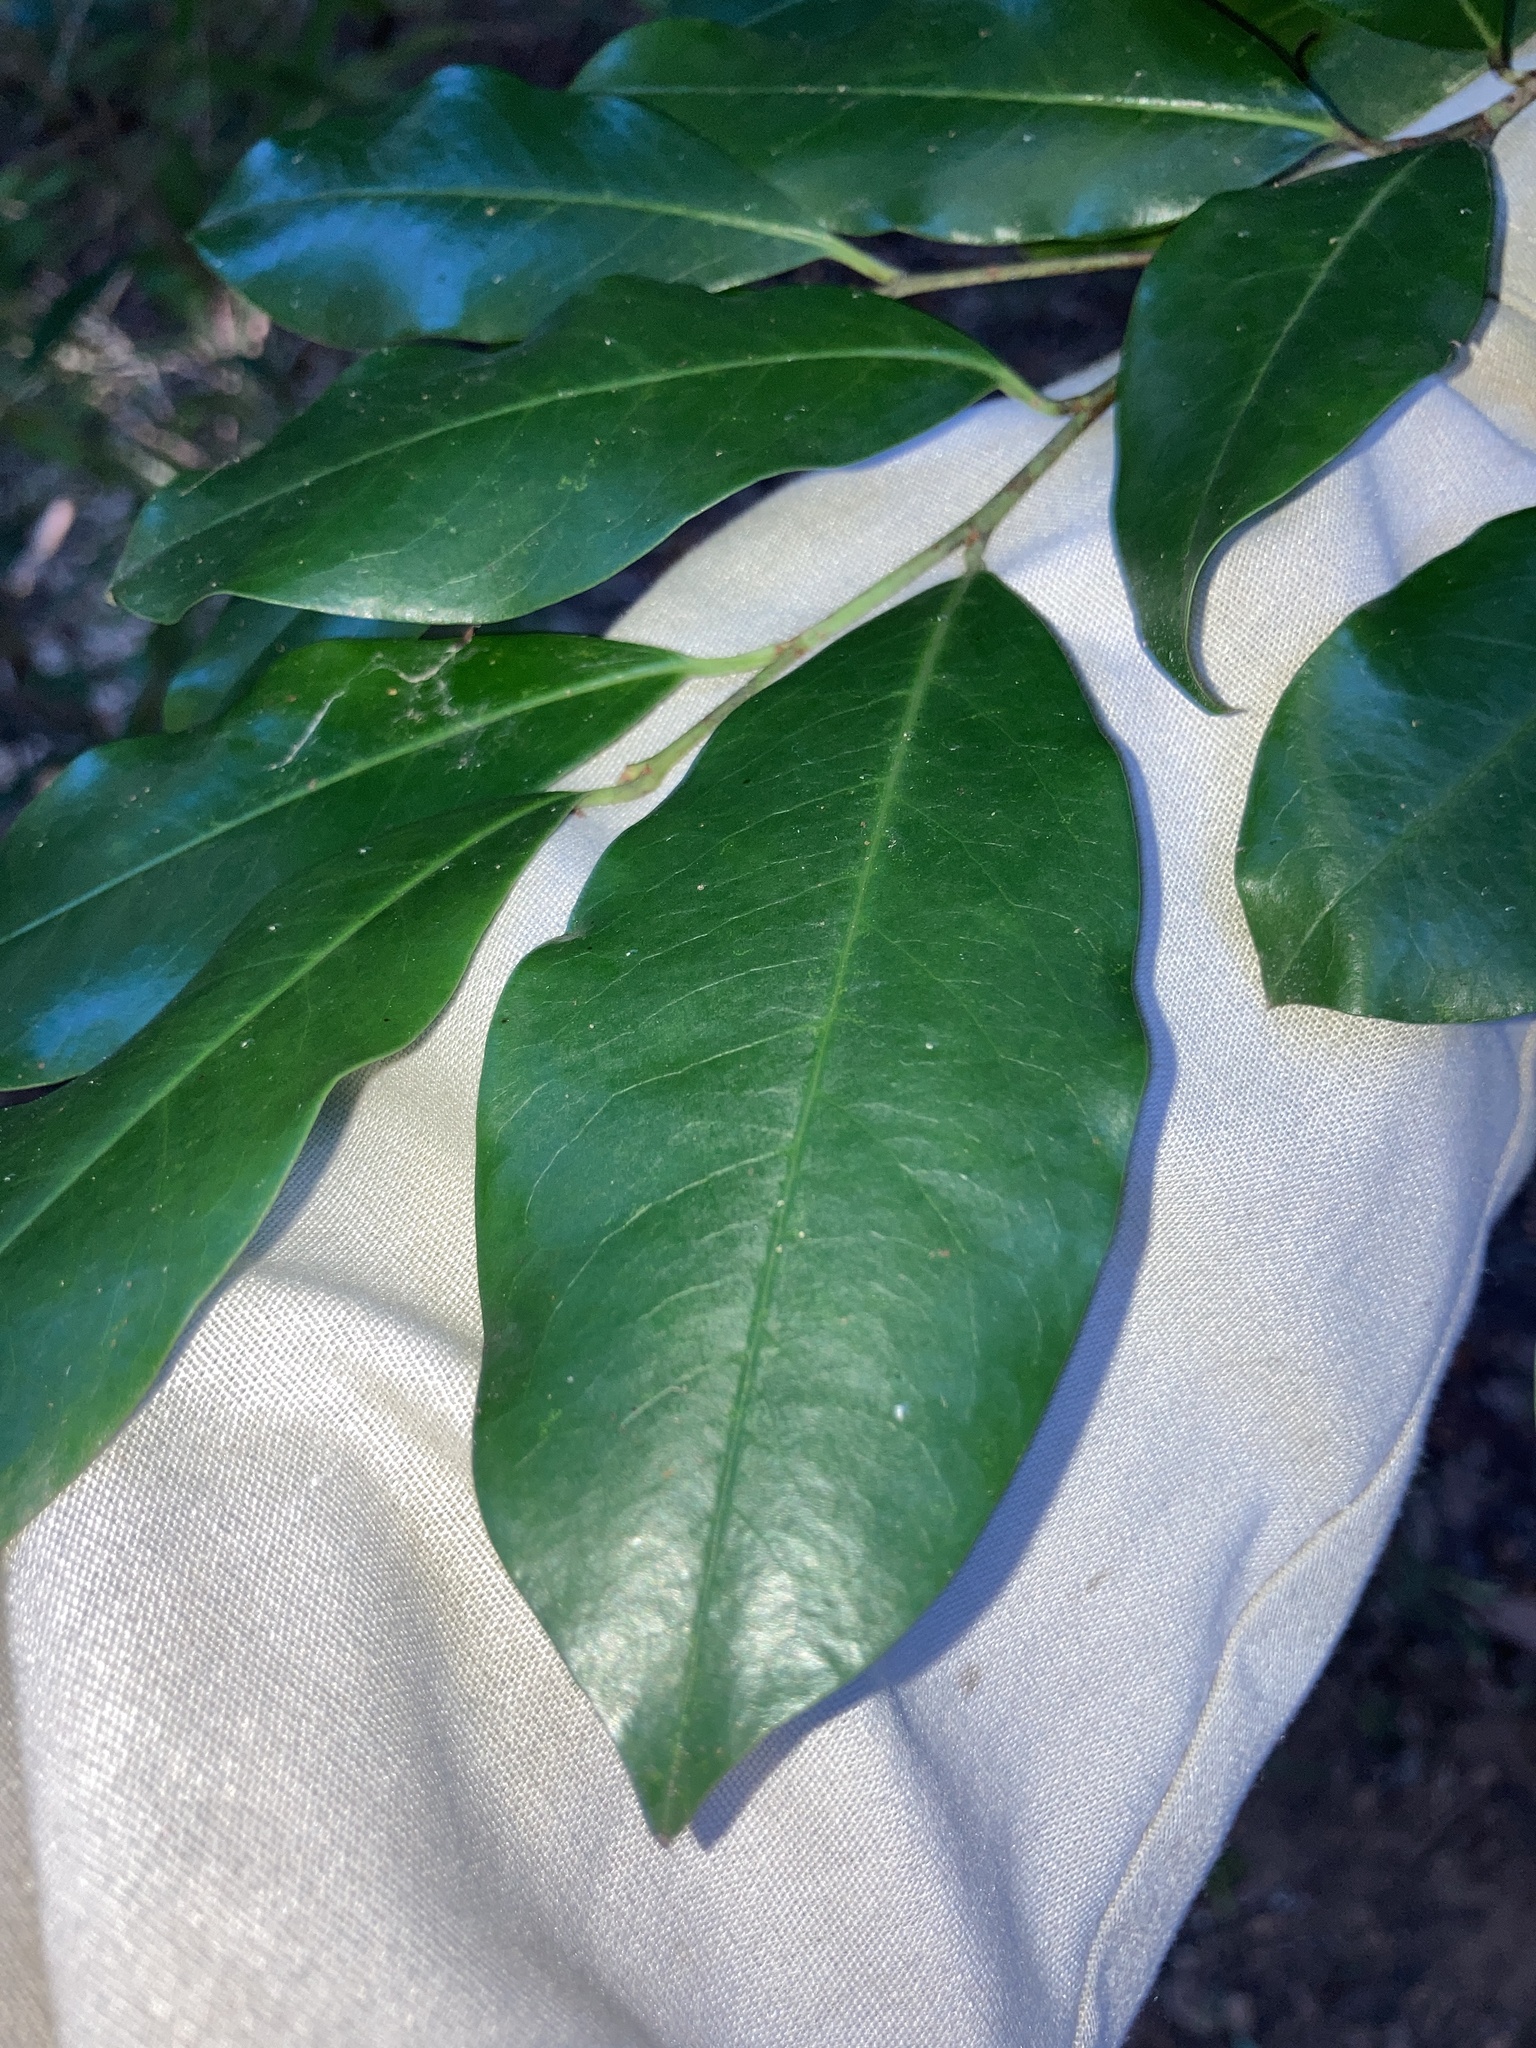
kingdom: Plantae
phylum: Tracheophyta
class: Magnoliopsida
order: Rosales
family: Rosaceae
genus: Prunus
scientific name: Prunus serotina
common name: Black cherry
